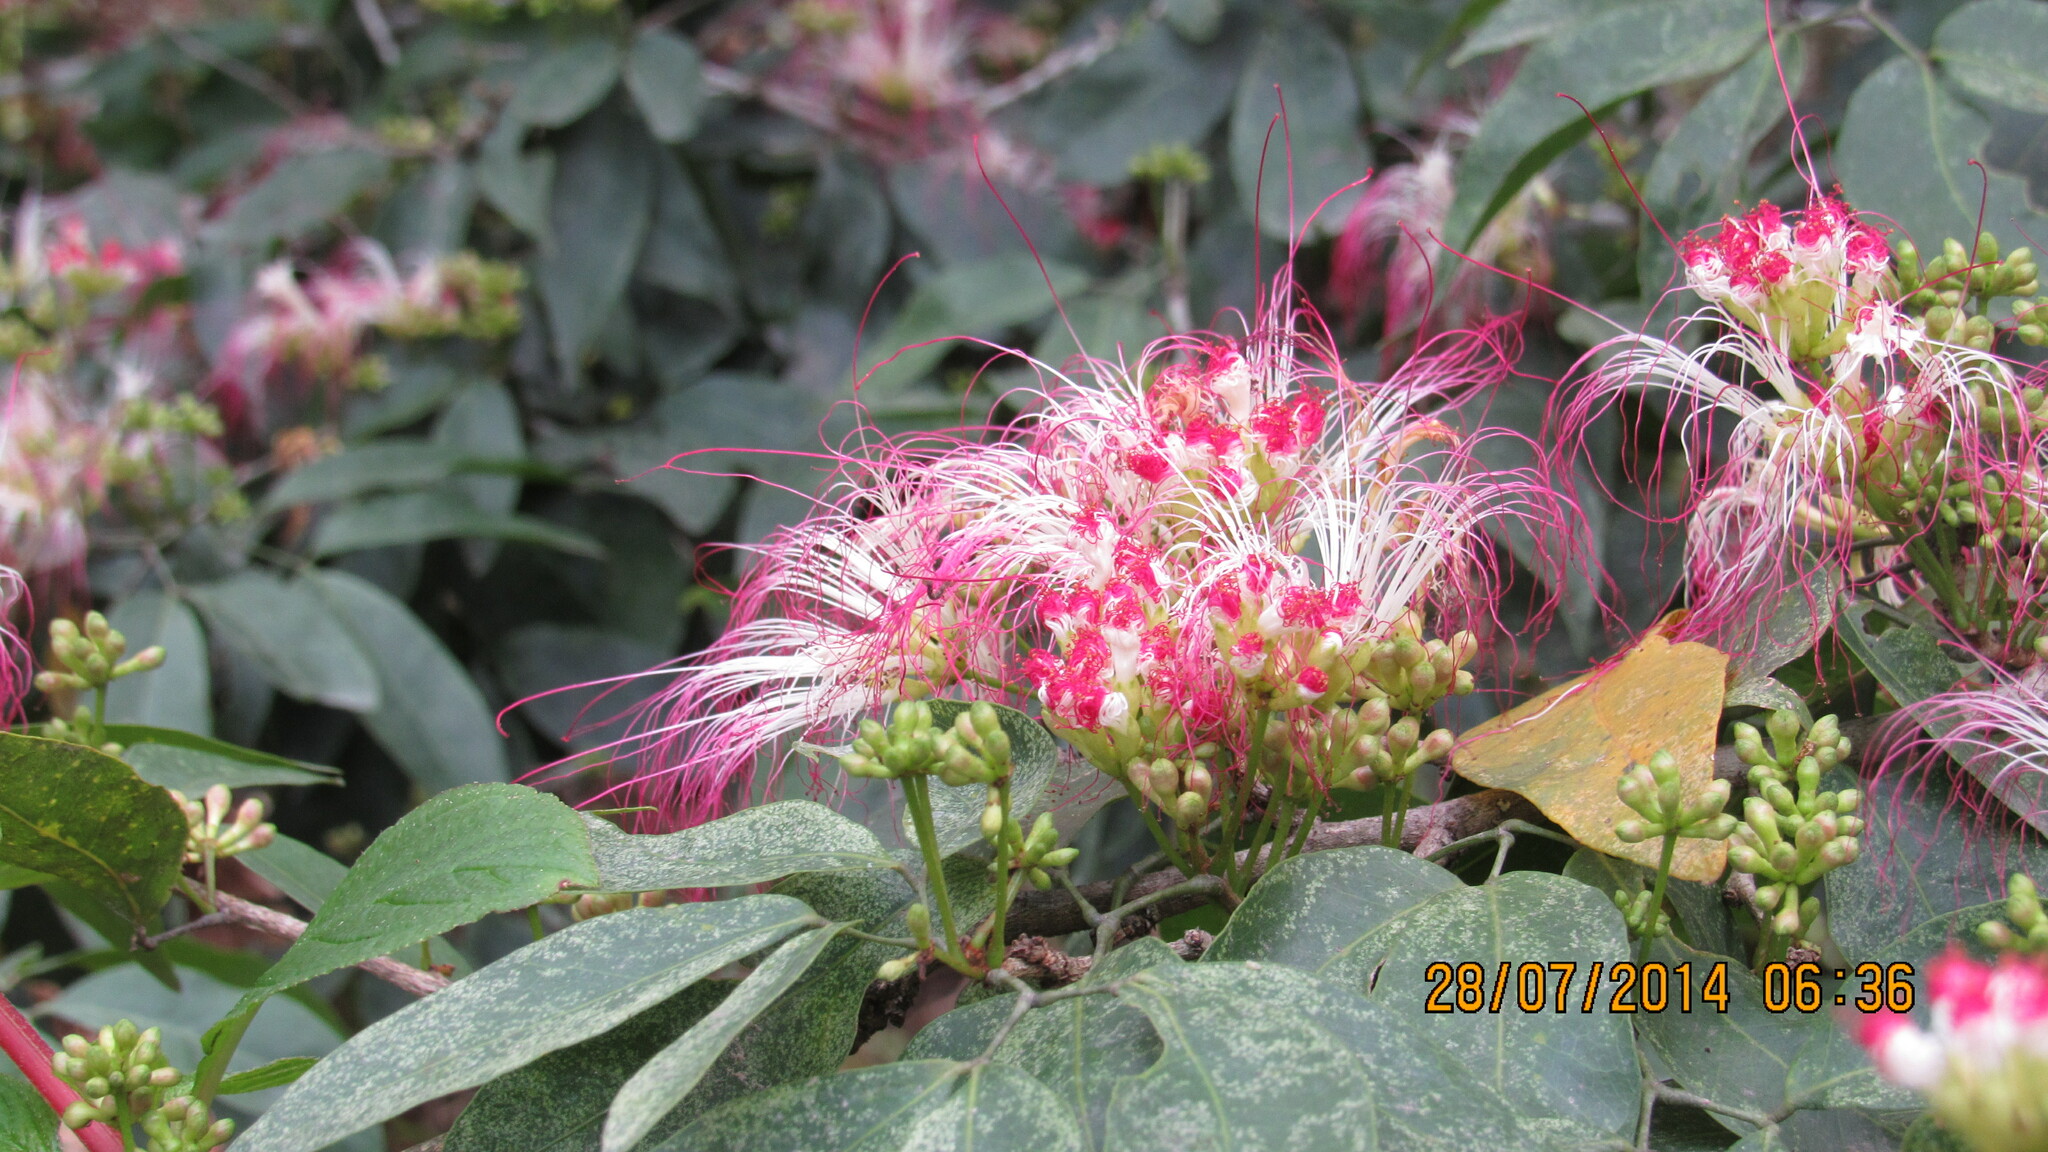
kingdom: Plantae
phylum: Tracheophyta
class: Magnoliopsida
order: Fabales
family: Fabaceae
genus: Calliandra
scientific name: Calliandra laevis
